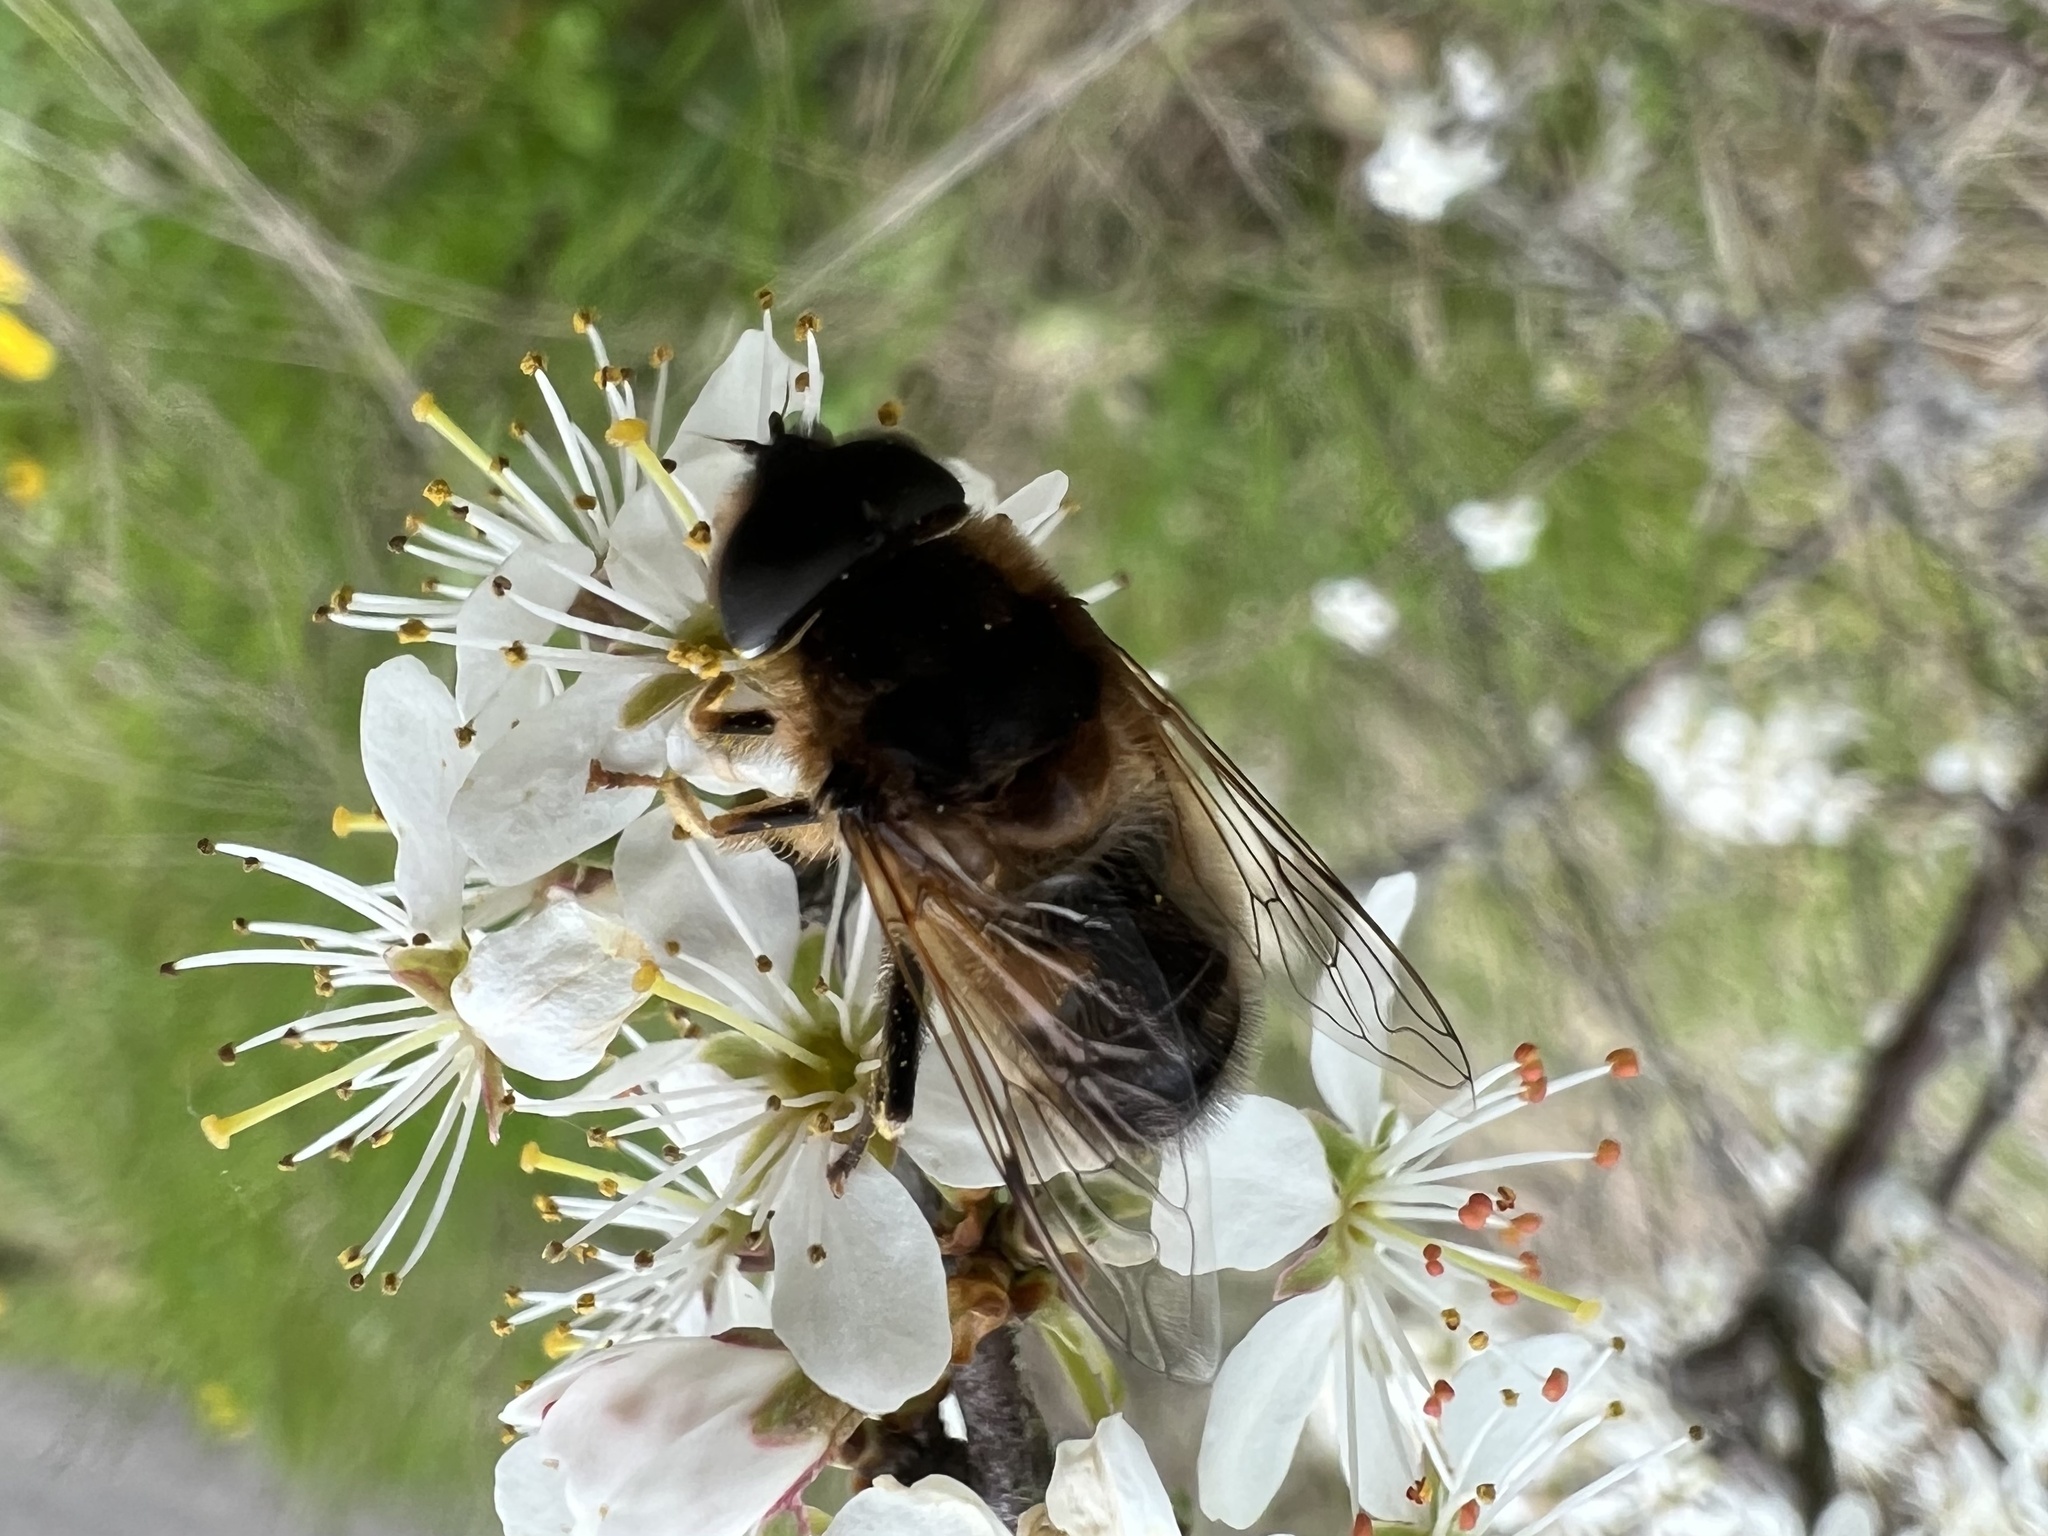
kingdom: Animalia
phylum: Arthropoda
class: Insecta
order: Diptera
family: Syrphidae
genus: Eristalis
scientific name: Eristalis pertinax
